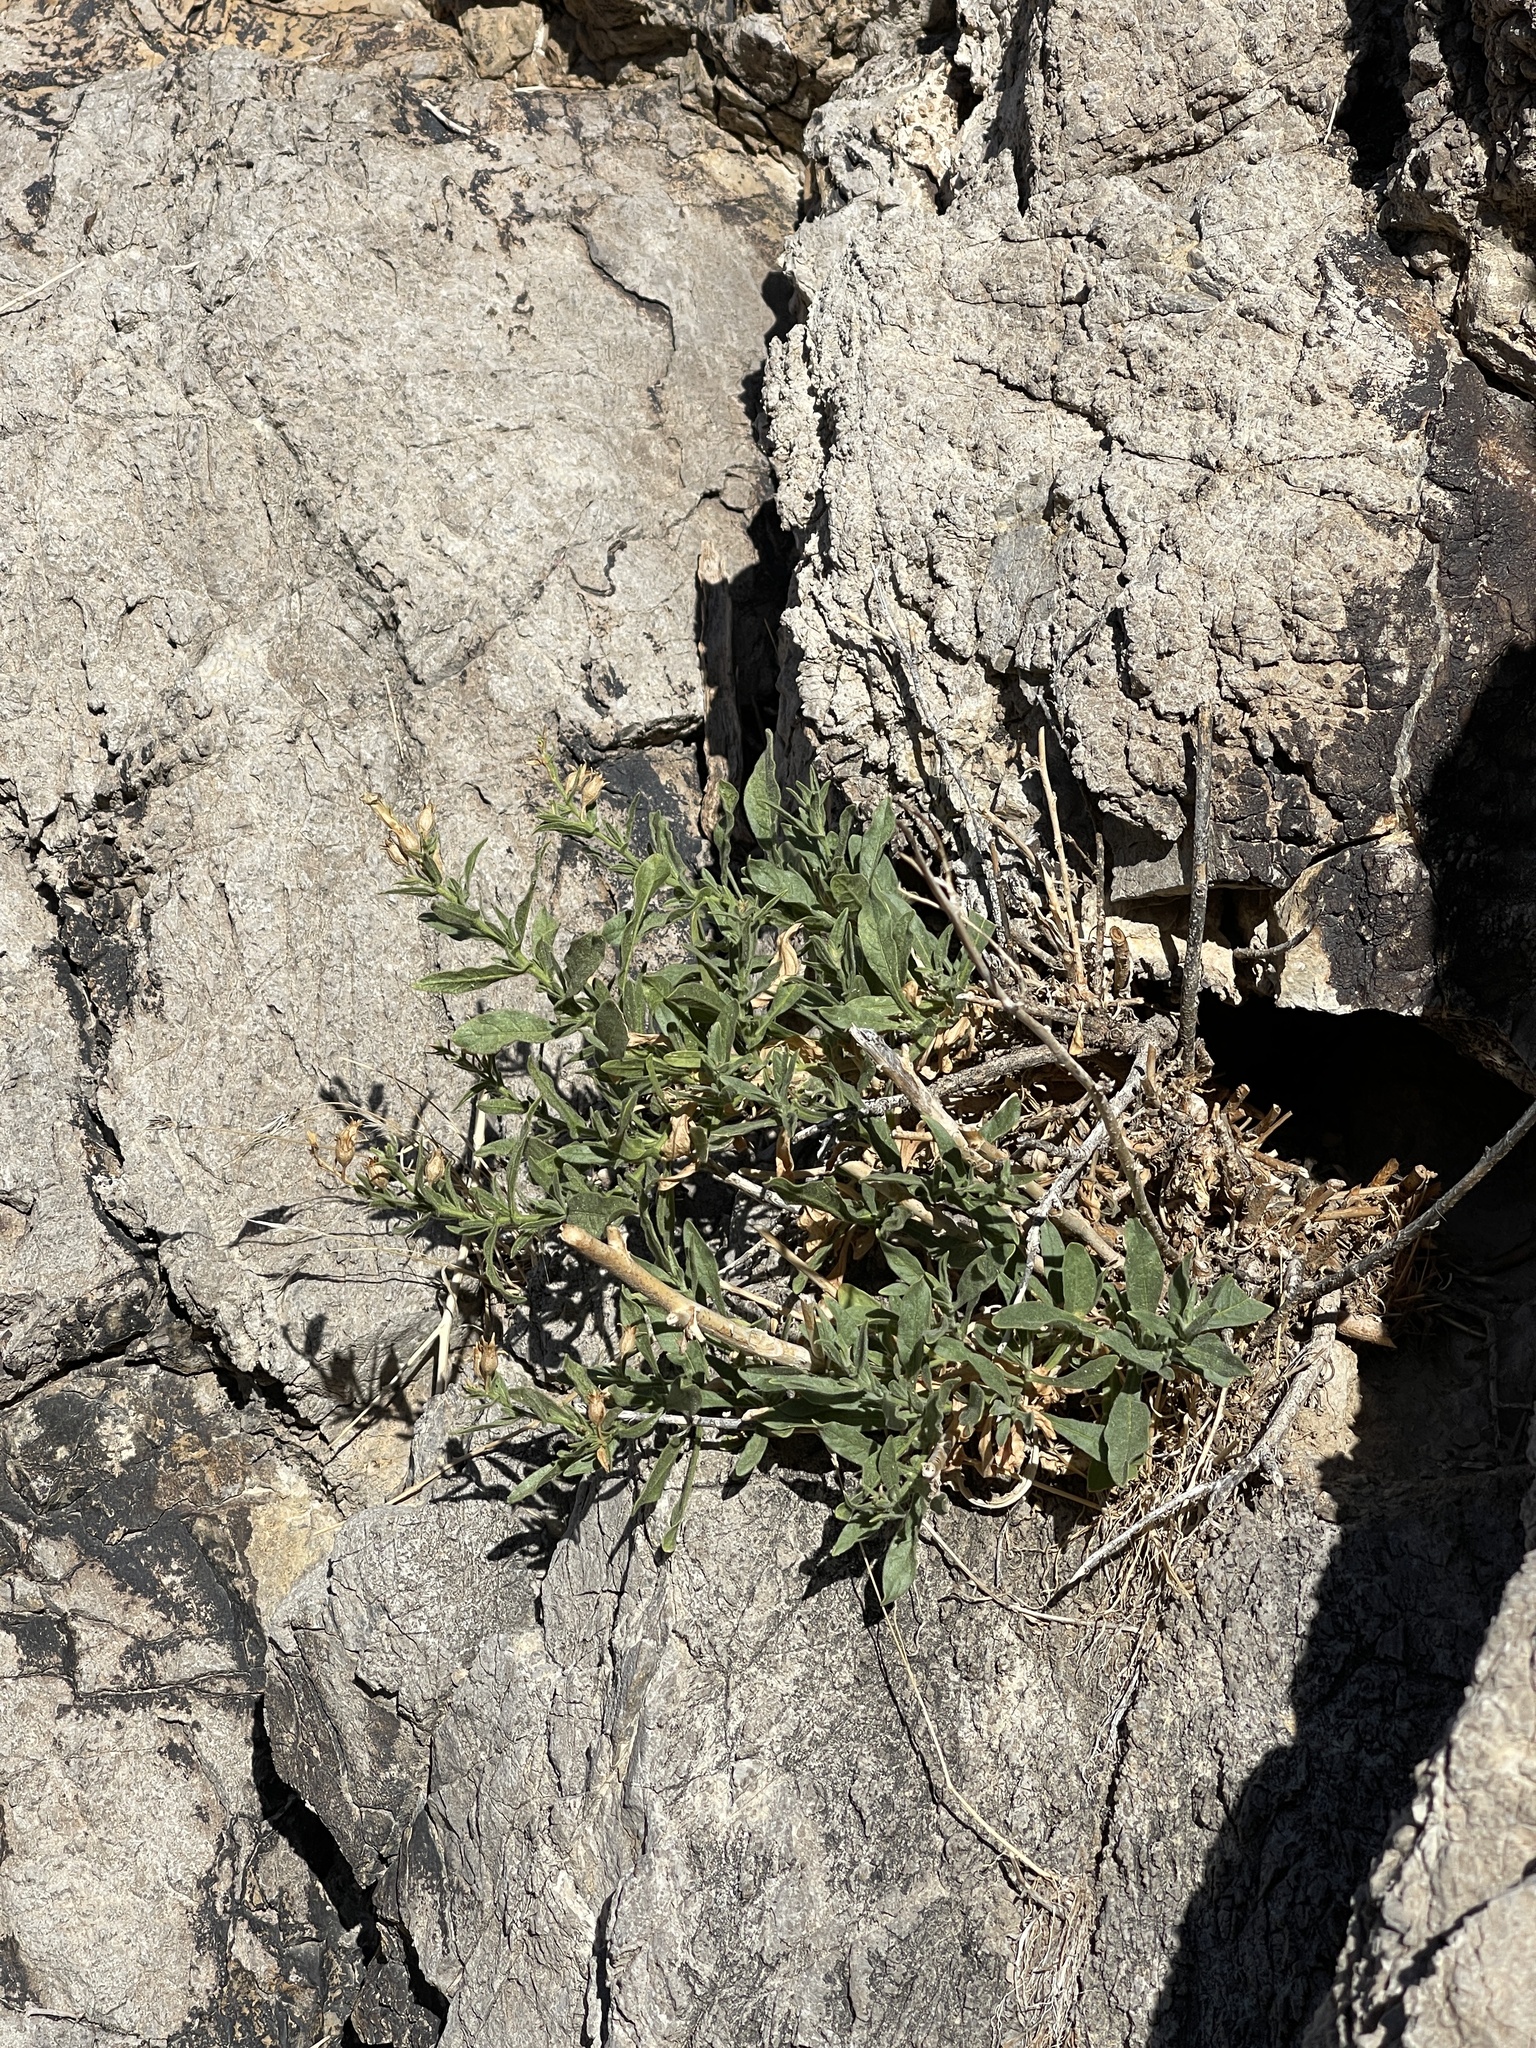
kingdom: Plantae
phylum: Tracheophyta
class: Magnoliopsida
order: Solanales
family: Solanaceae
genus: Nicotiana
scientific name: Nicotiana obtusifolia
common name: Desert tobacco
